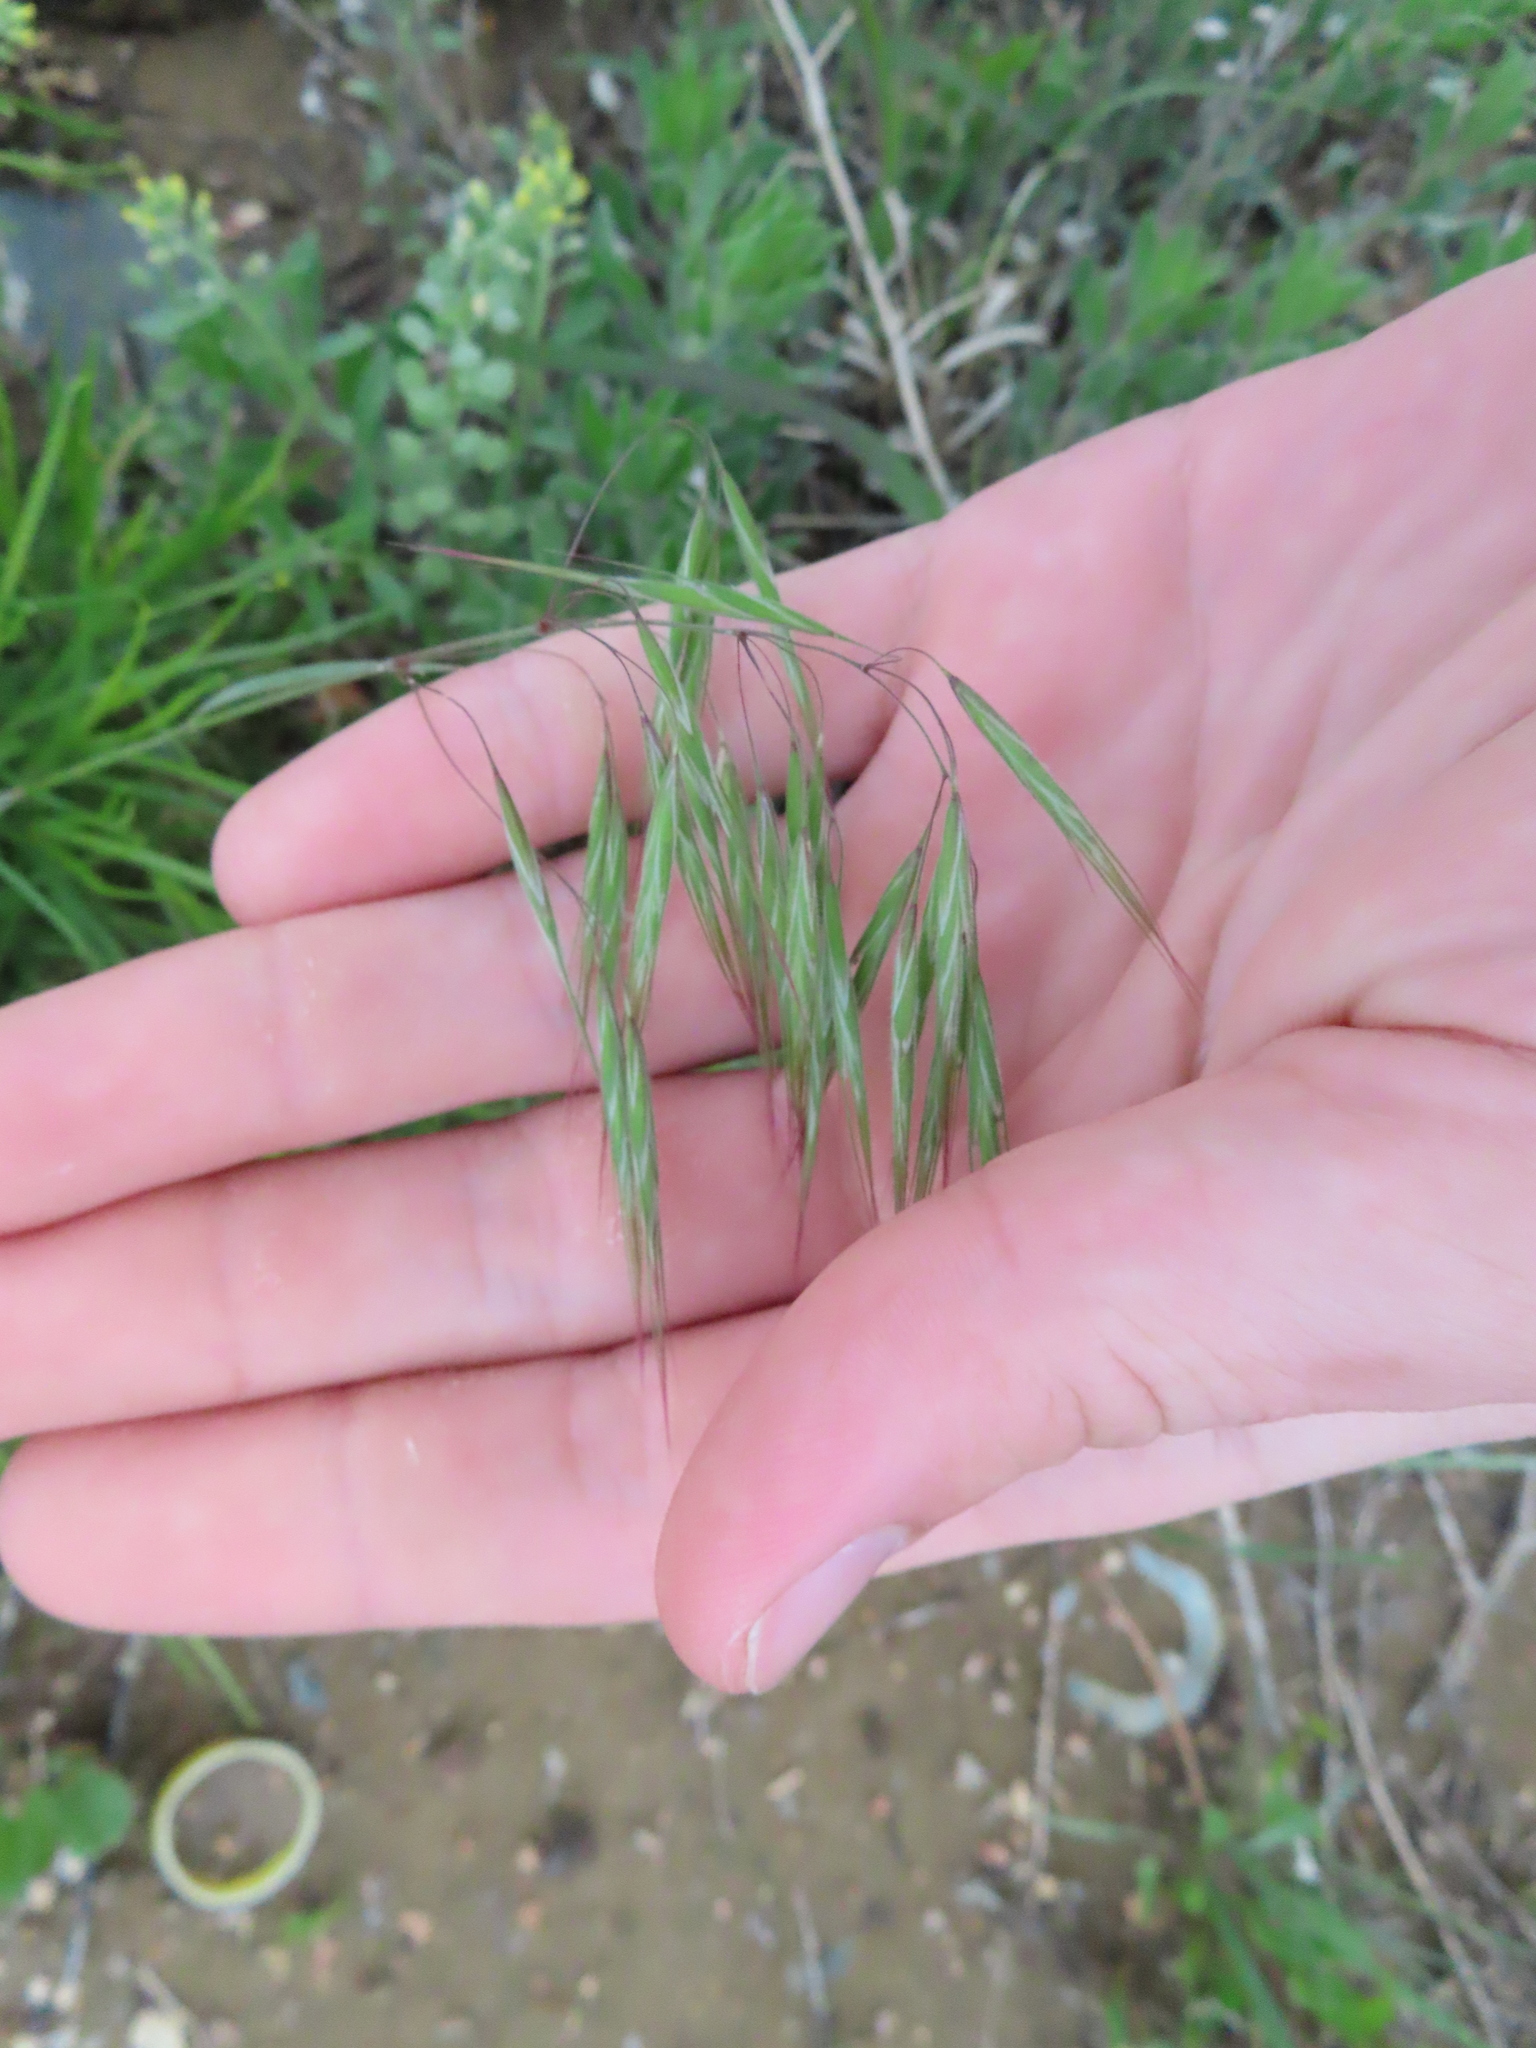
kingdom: Plantae
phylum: Tracheophyta
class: Liliopsida
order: Poales
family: Poaceae
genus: Bromus
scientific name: Bromus tectorum
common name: Cheatgrass
